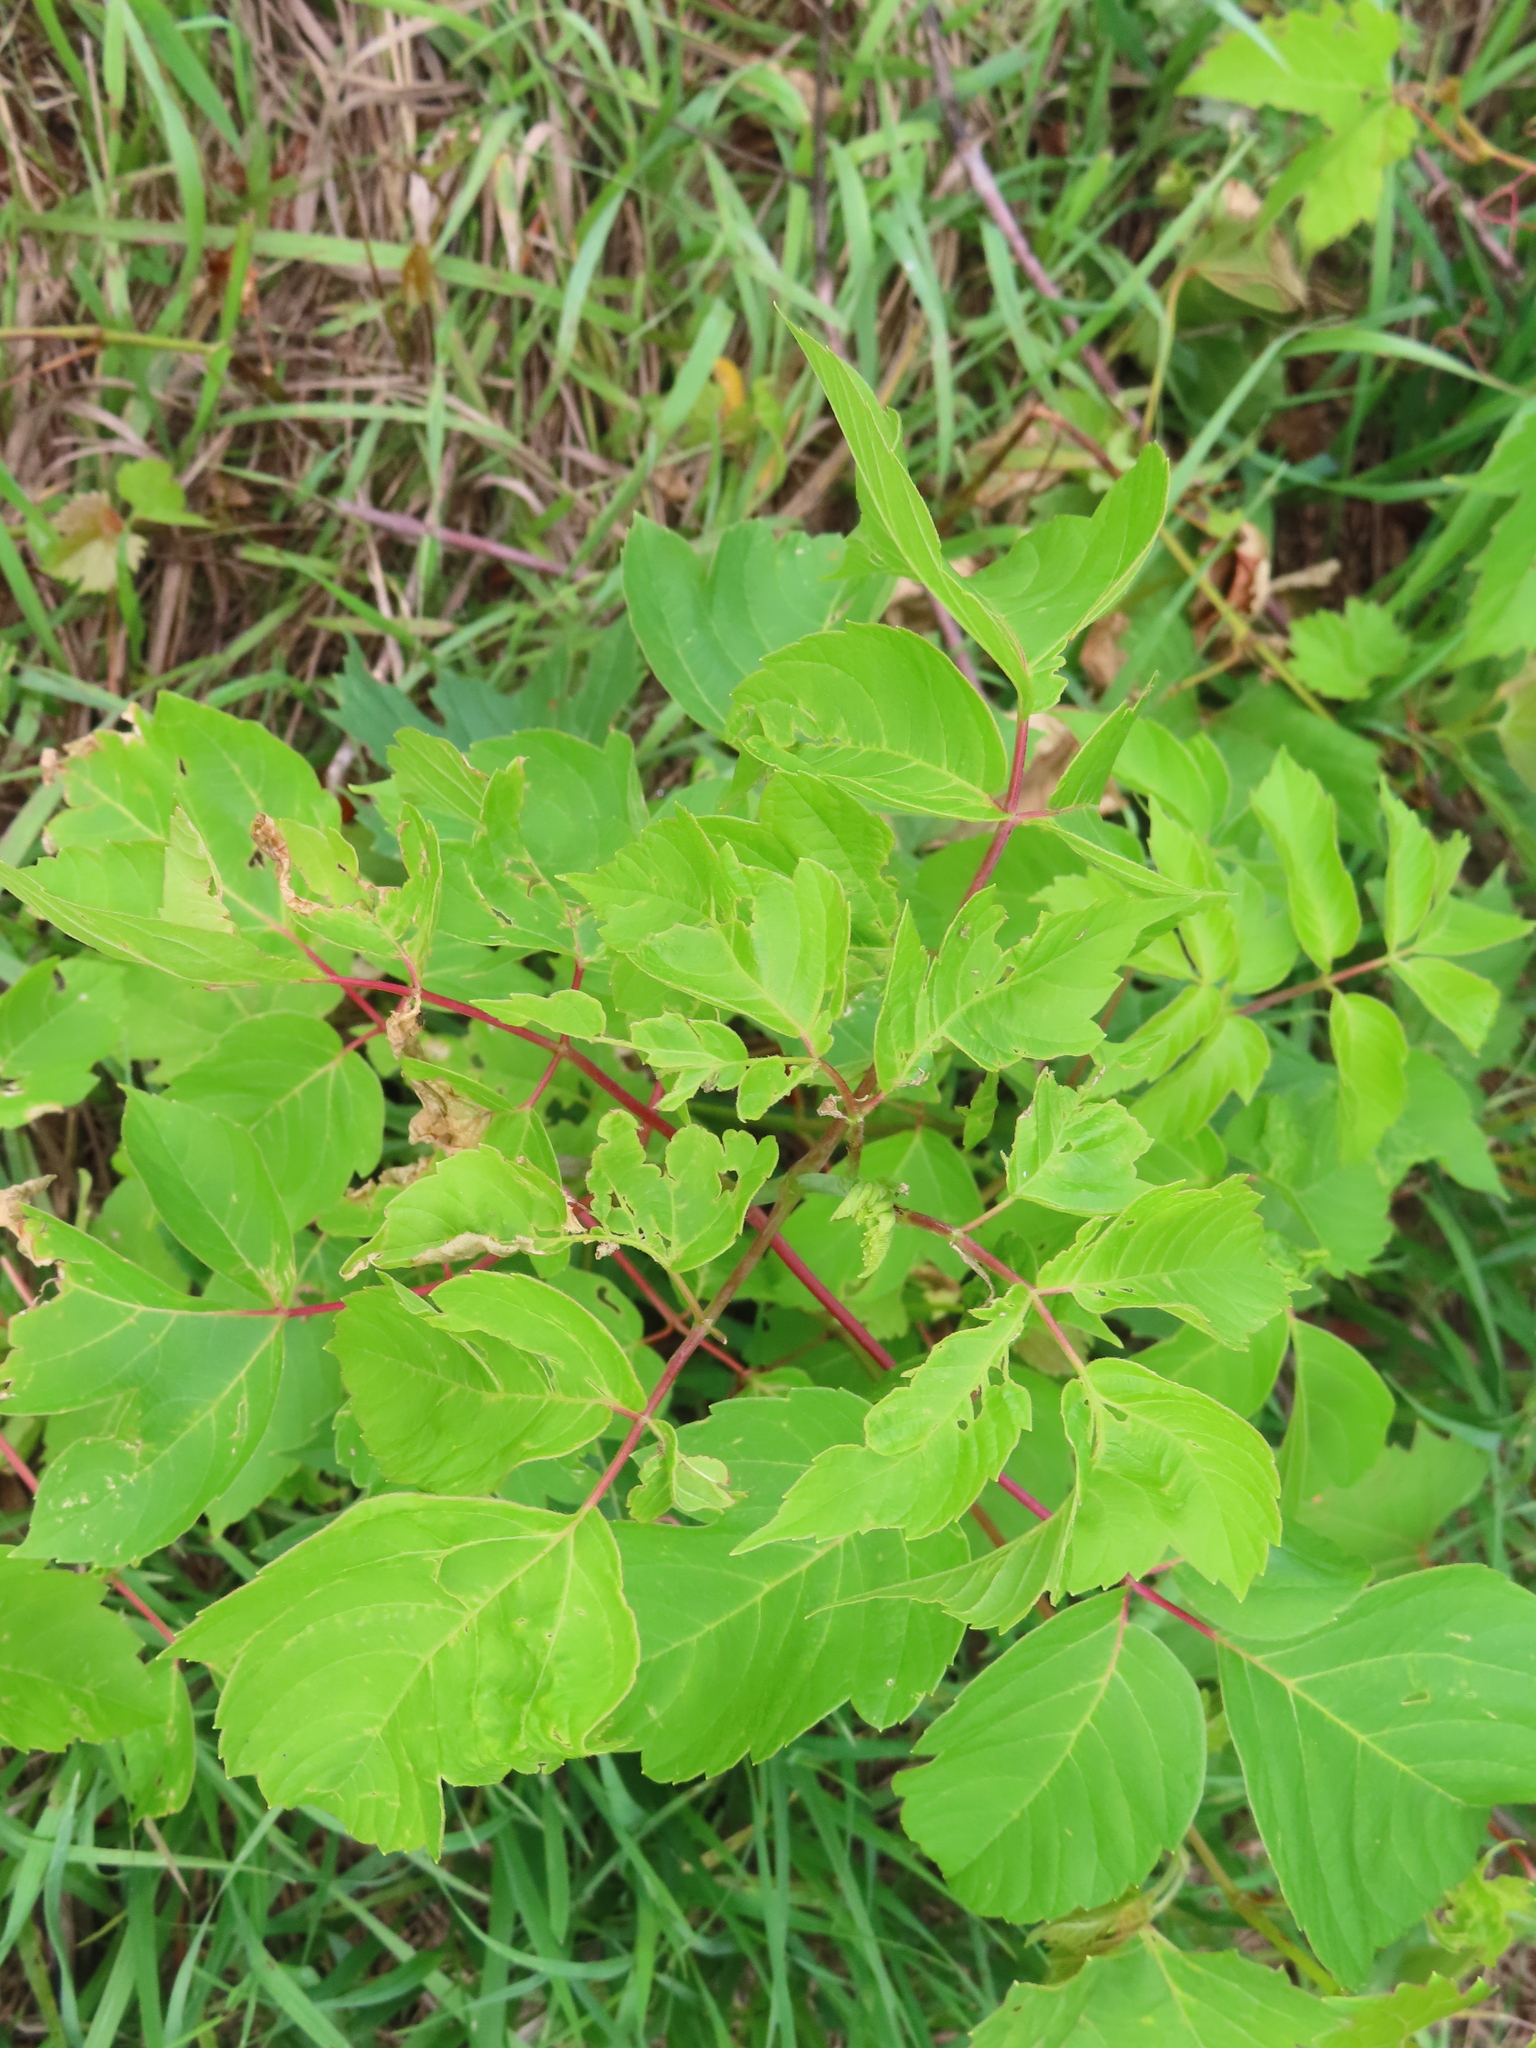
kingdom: Plantae
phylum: Tracheophyta
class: Magnoliopsida
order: Sapindales
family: Sapindaceae
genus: Acer
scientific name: Acer negundo
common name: Ashleaf maple
